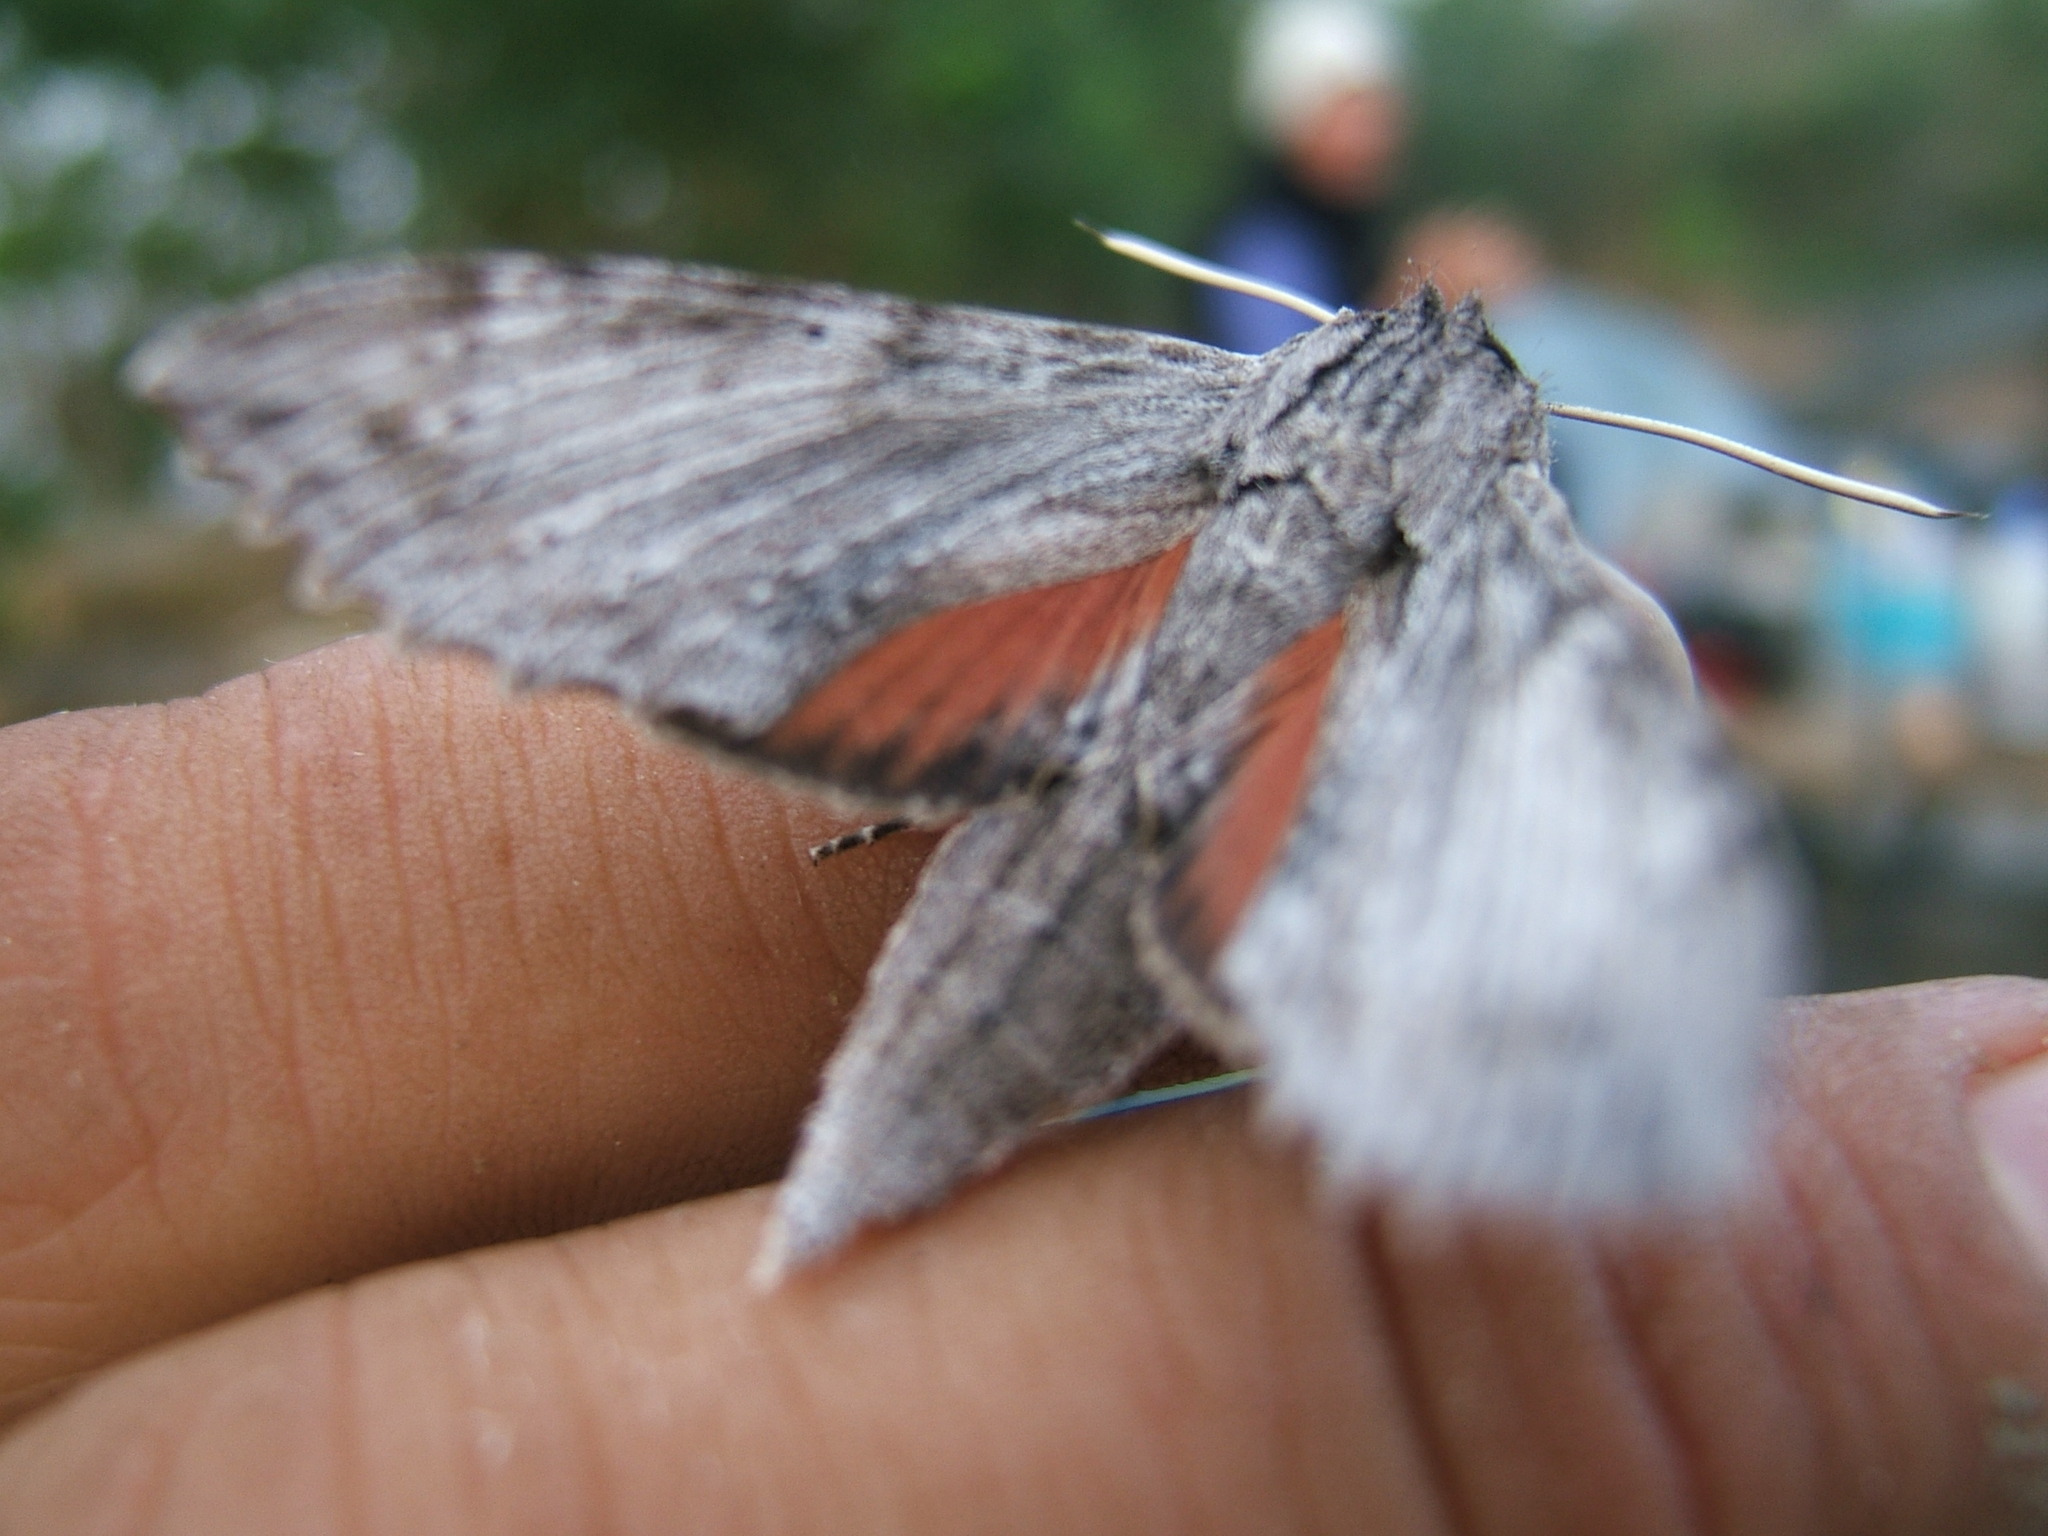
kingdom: Animalia
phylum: Arthropoda
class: Insecta
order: Lepidoptera
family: Sphingidae
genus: Erinnyis
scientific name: Erinnyis obscura
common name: Obscure sphinx
